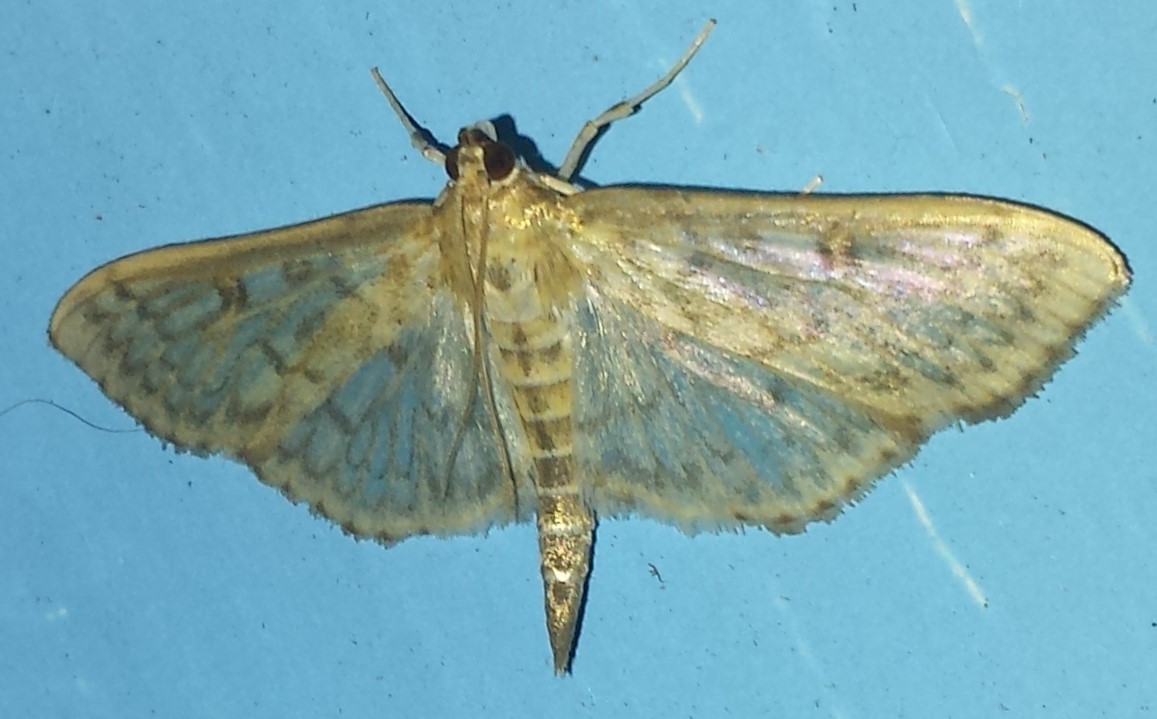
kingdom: Animalia
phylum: Arthropoda
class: Insecta
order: Lepidoptera
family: Crambidae
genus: Herpetogramma
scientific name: Herpetogramma pertextalis
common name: Bold-feathered grass moth
